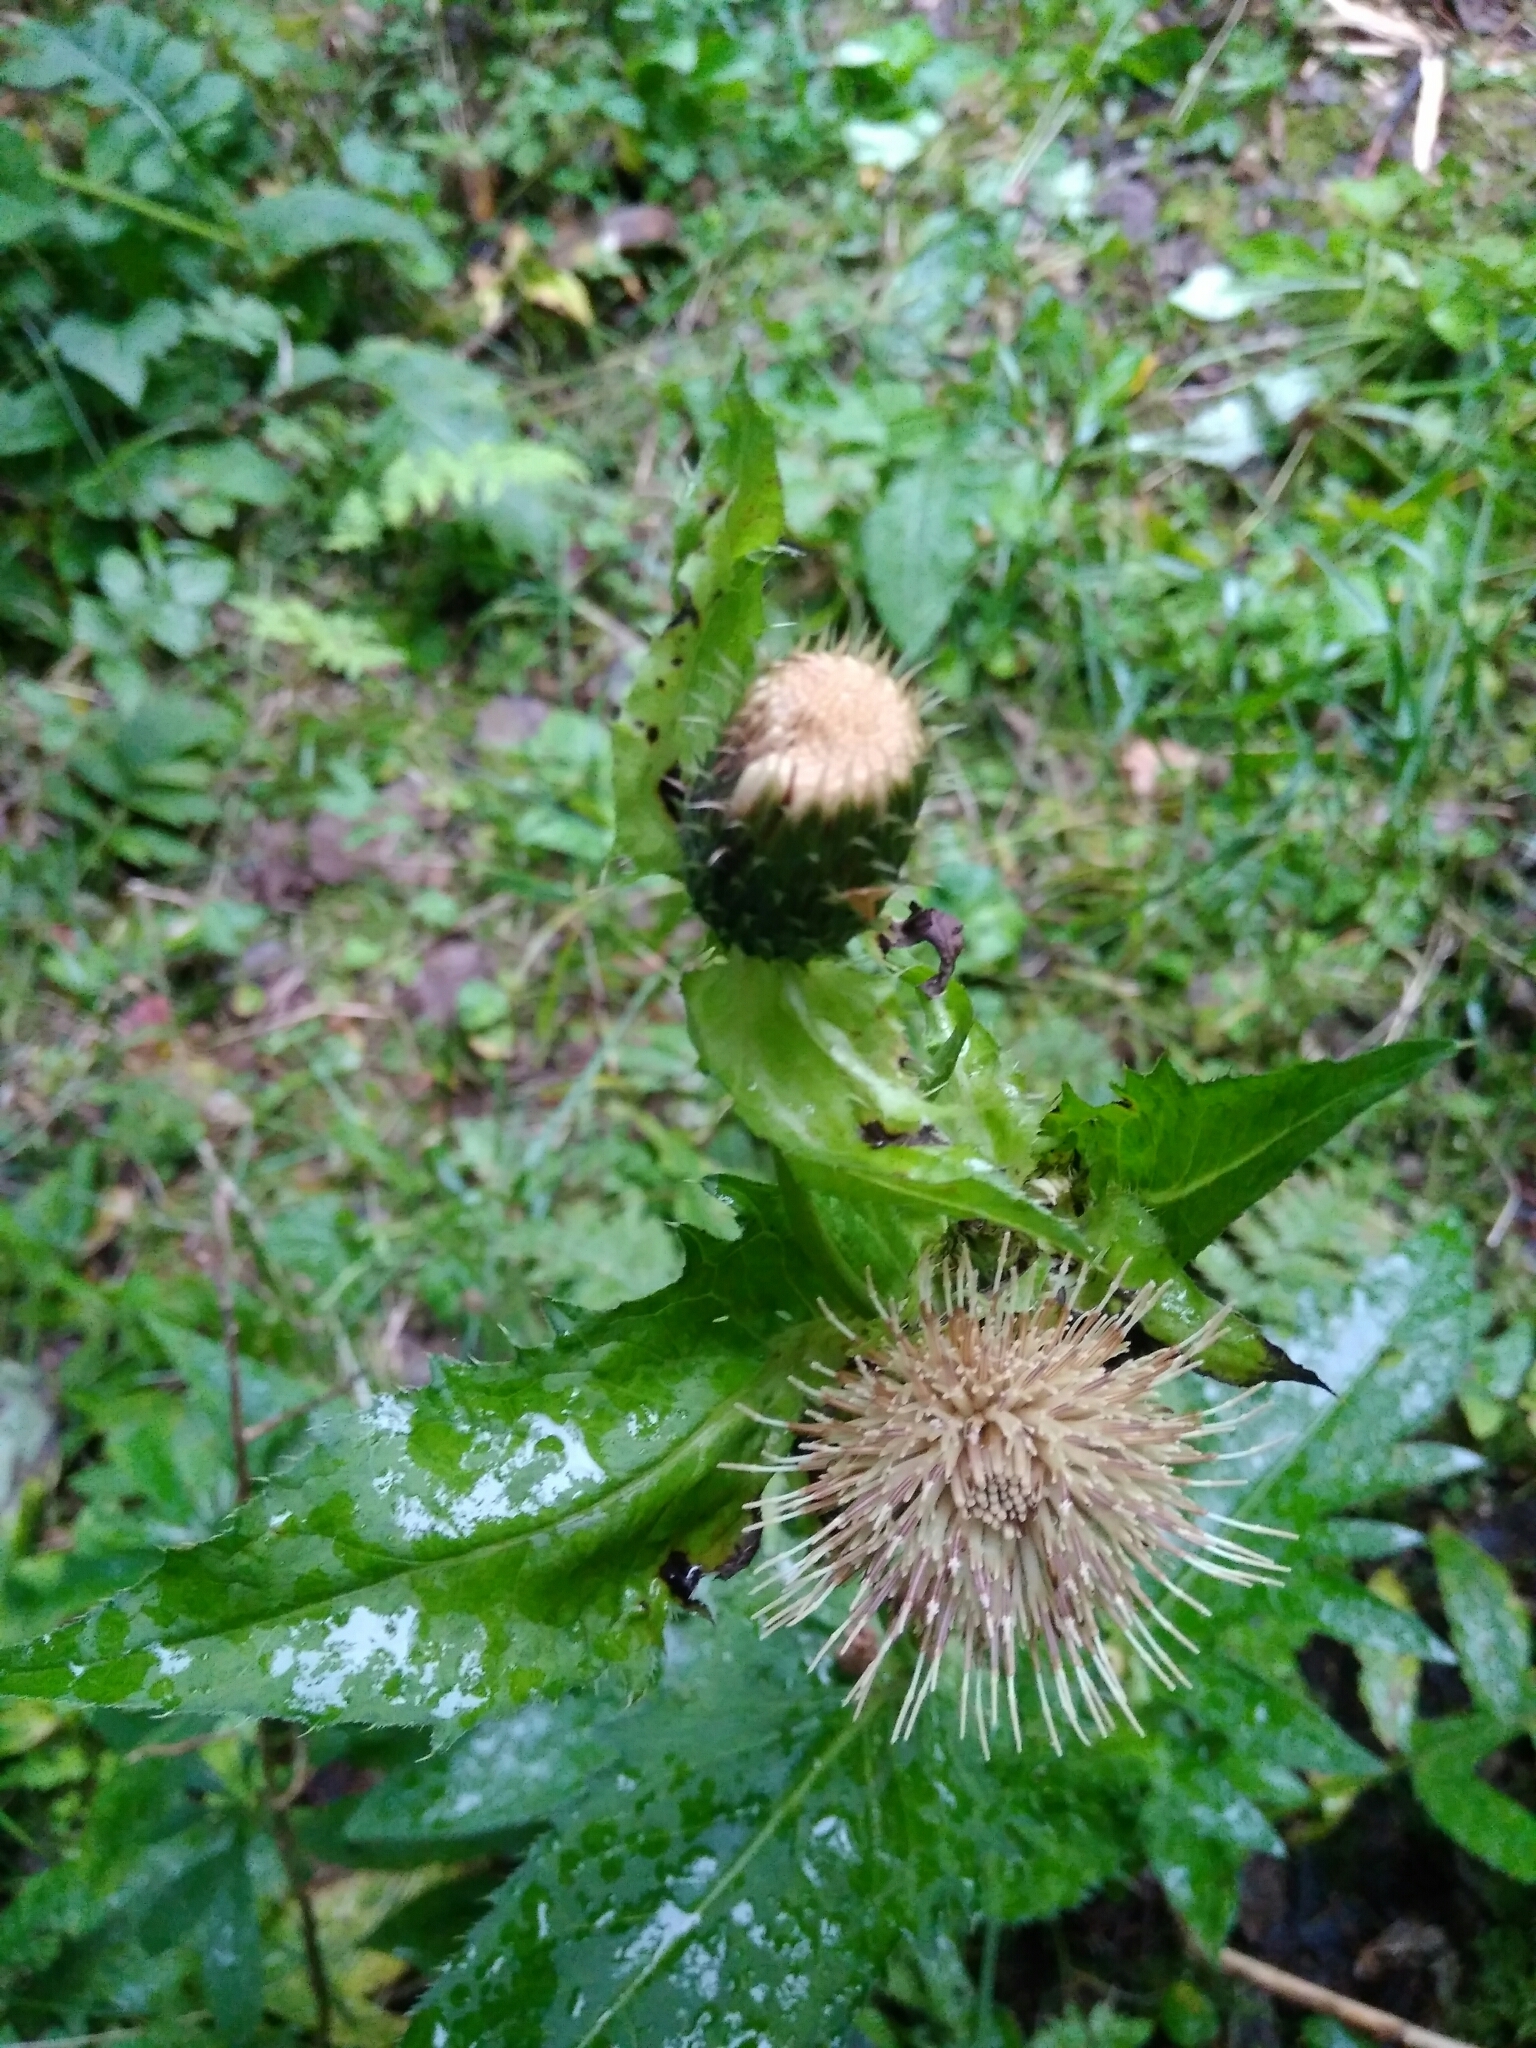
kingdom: Plantae
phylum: Tracheophyta
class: Magnoliopsida
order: Asterales
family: Asteraceae
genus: Cirsium
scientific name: Cirsium oleraceum
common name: Cabbage thistle
